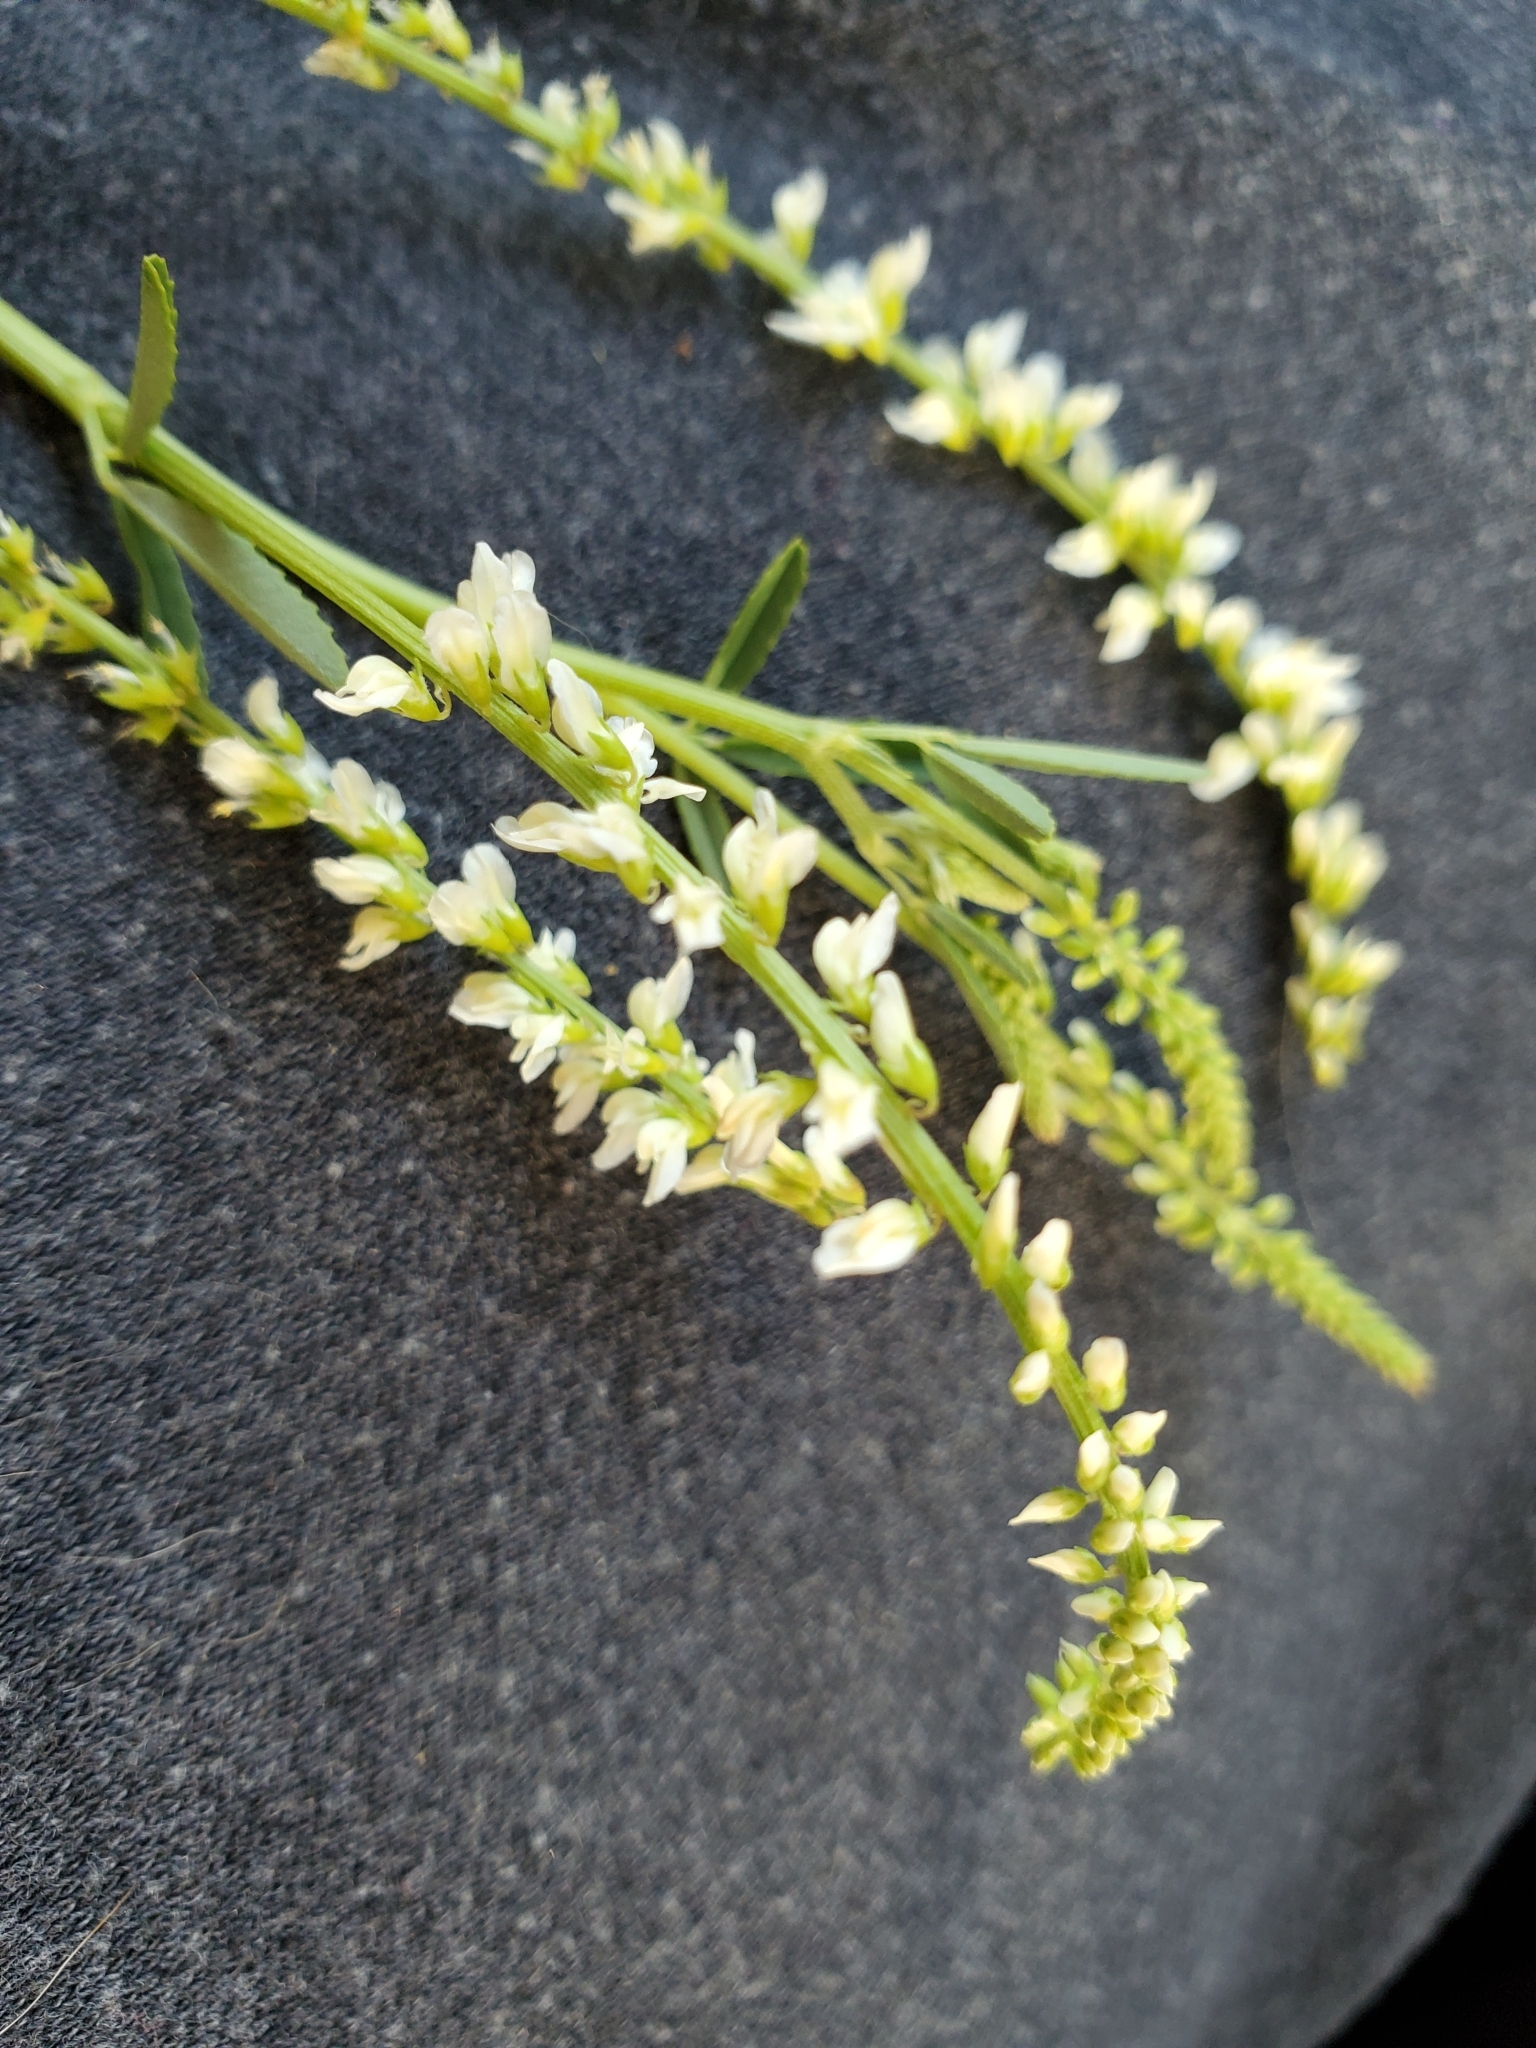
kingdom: Plantae
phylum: Tracheophyta
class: Magnoliopsida
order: Fabales
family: Fabaceae
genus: Melilotus
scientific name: Melilotus albus
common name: White melilot
